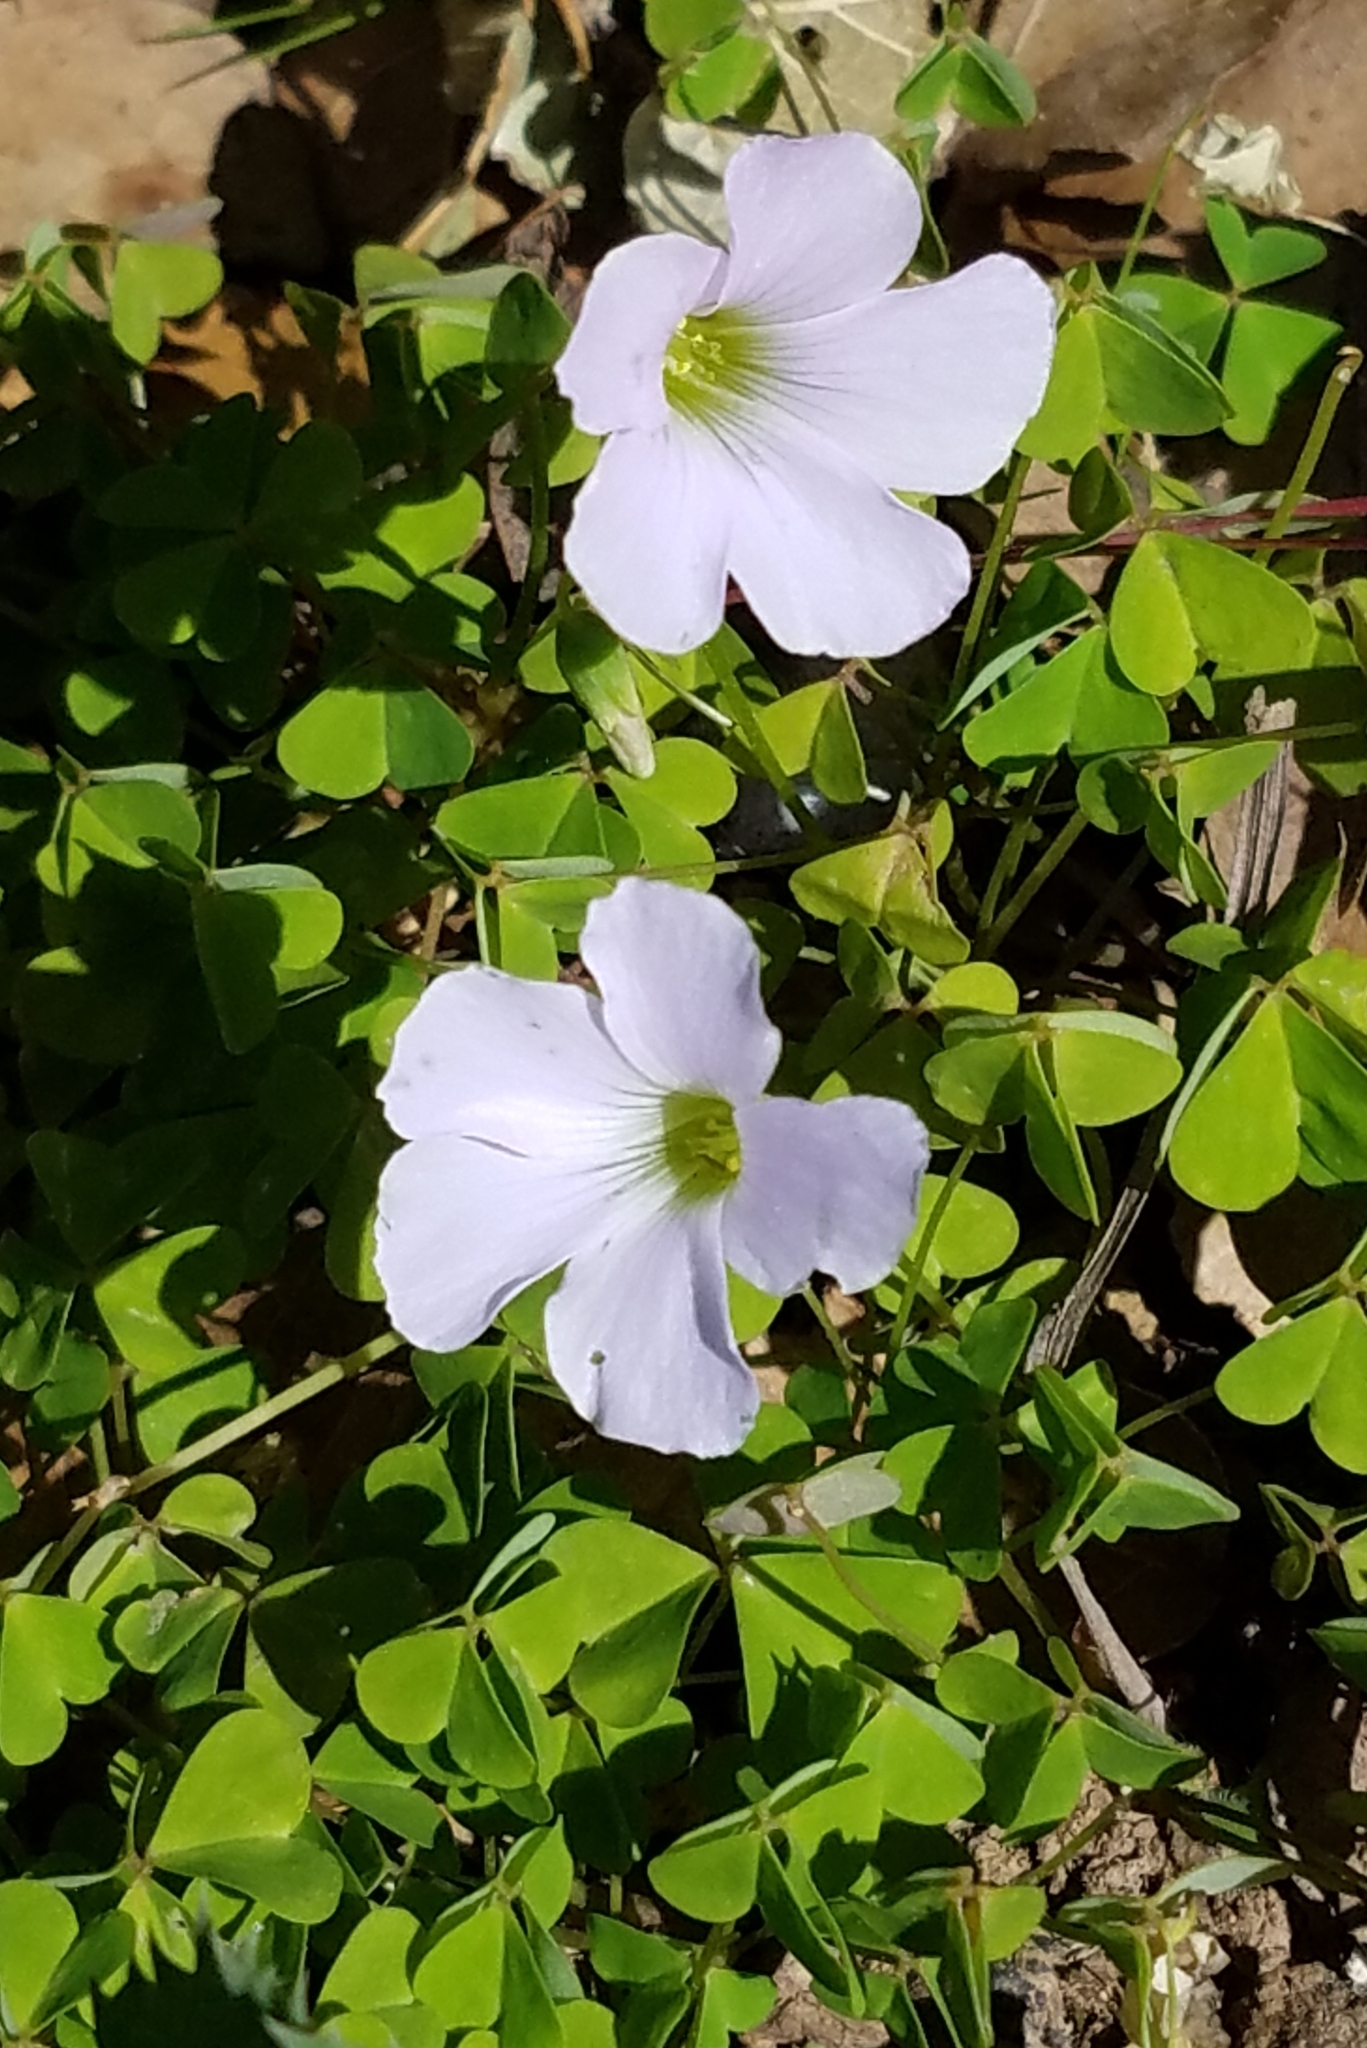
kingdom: Plantae
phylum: Tracheophyta
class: Magnoliopsida
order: Oxalidales
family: Oxalidaceae
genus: Oxalis
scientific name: Oxalis incarnata
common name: Pale pink-sorrel
